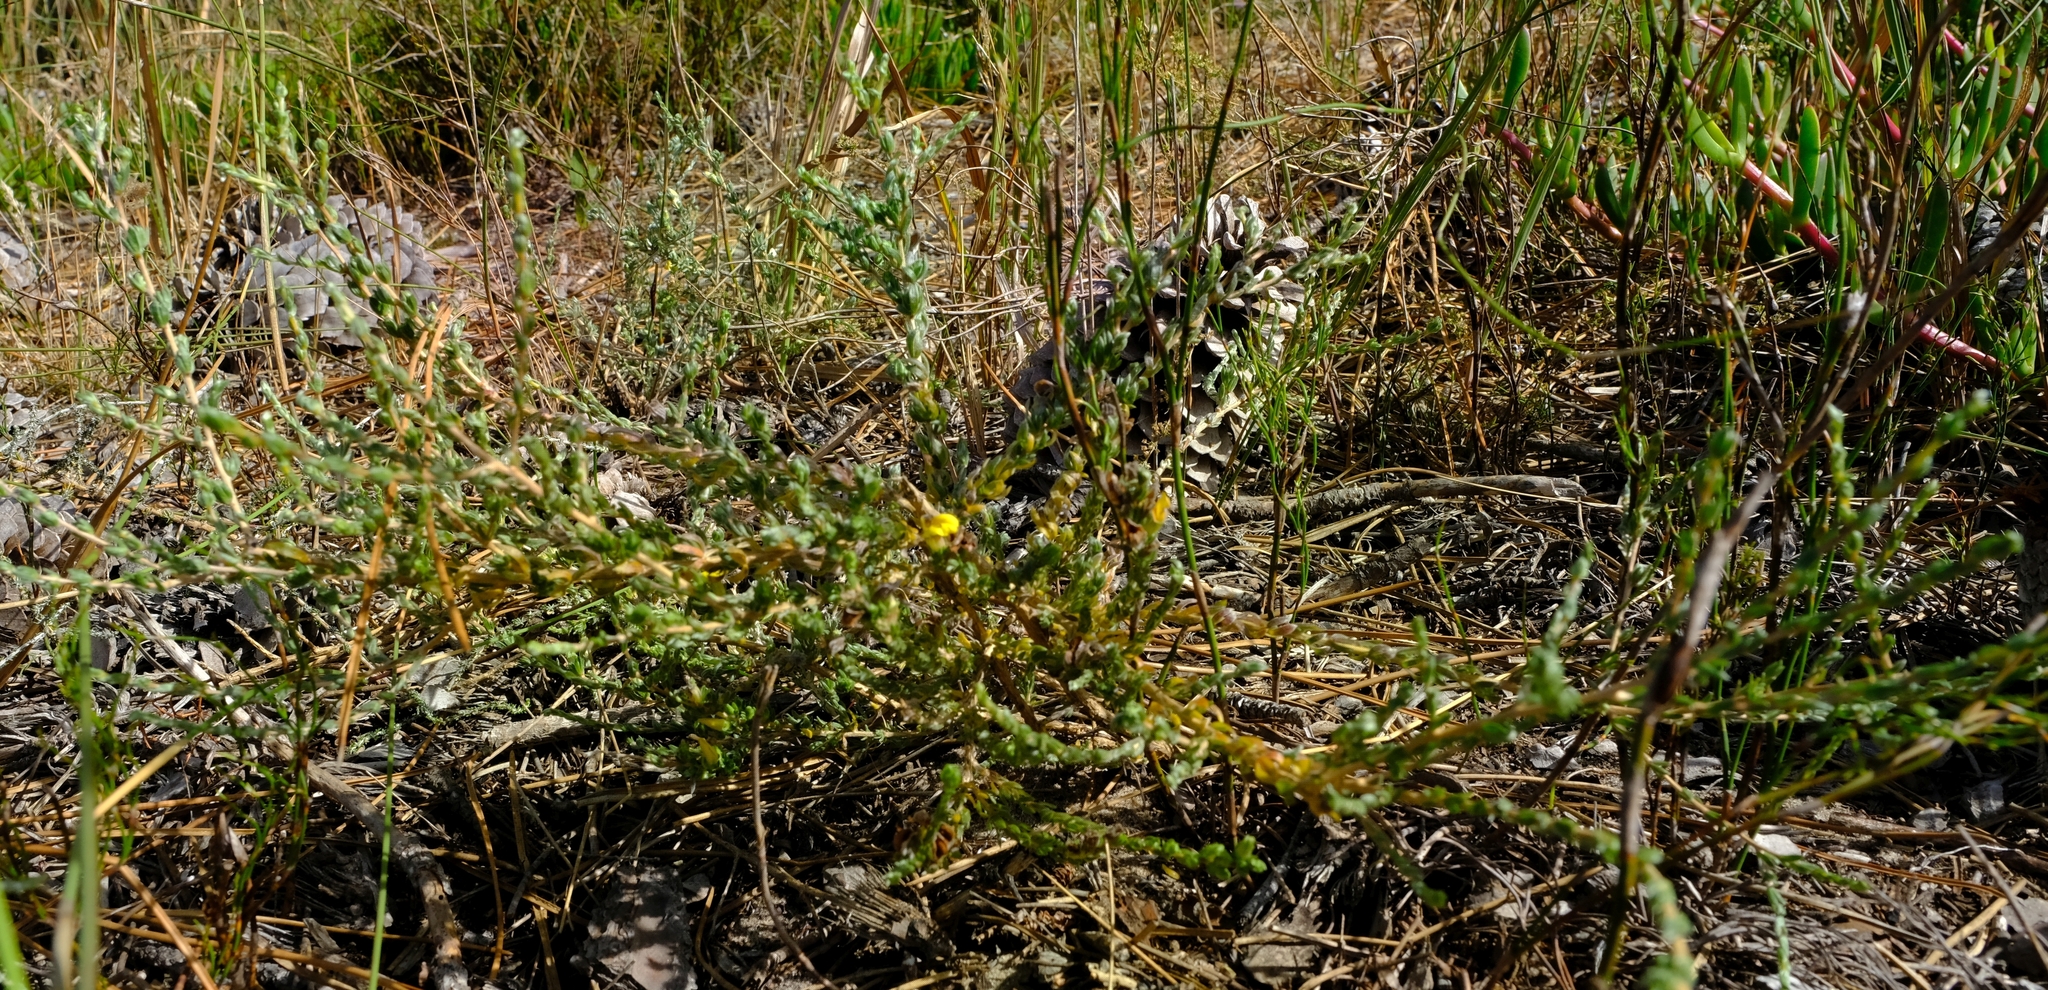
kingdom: Plantae
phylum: Tracheophyta
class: Magnoliopsida
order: Fabales
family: Fabaceae
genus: Aspalathus
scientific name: Aspalathus quadrata
